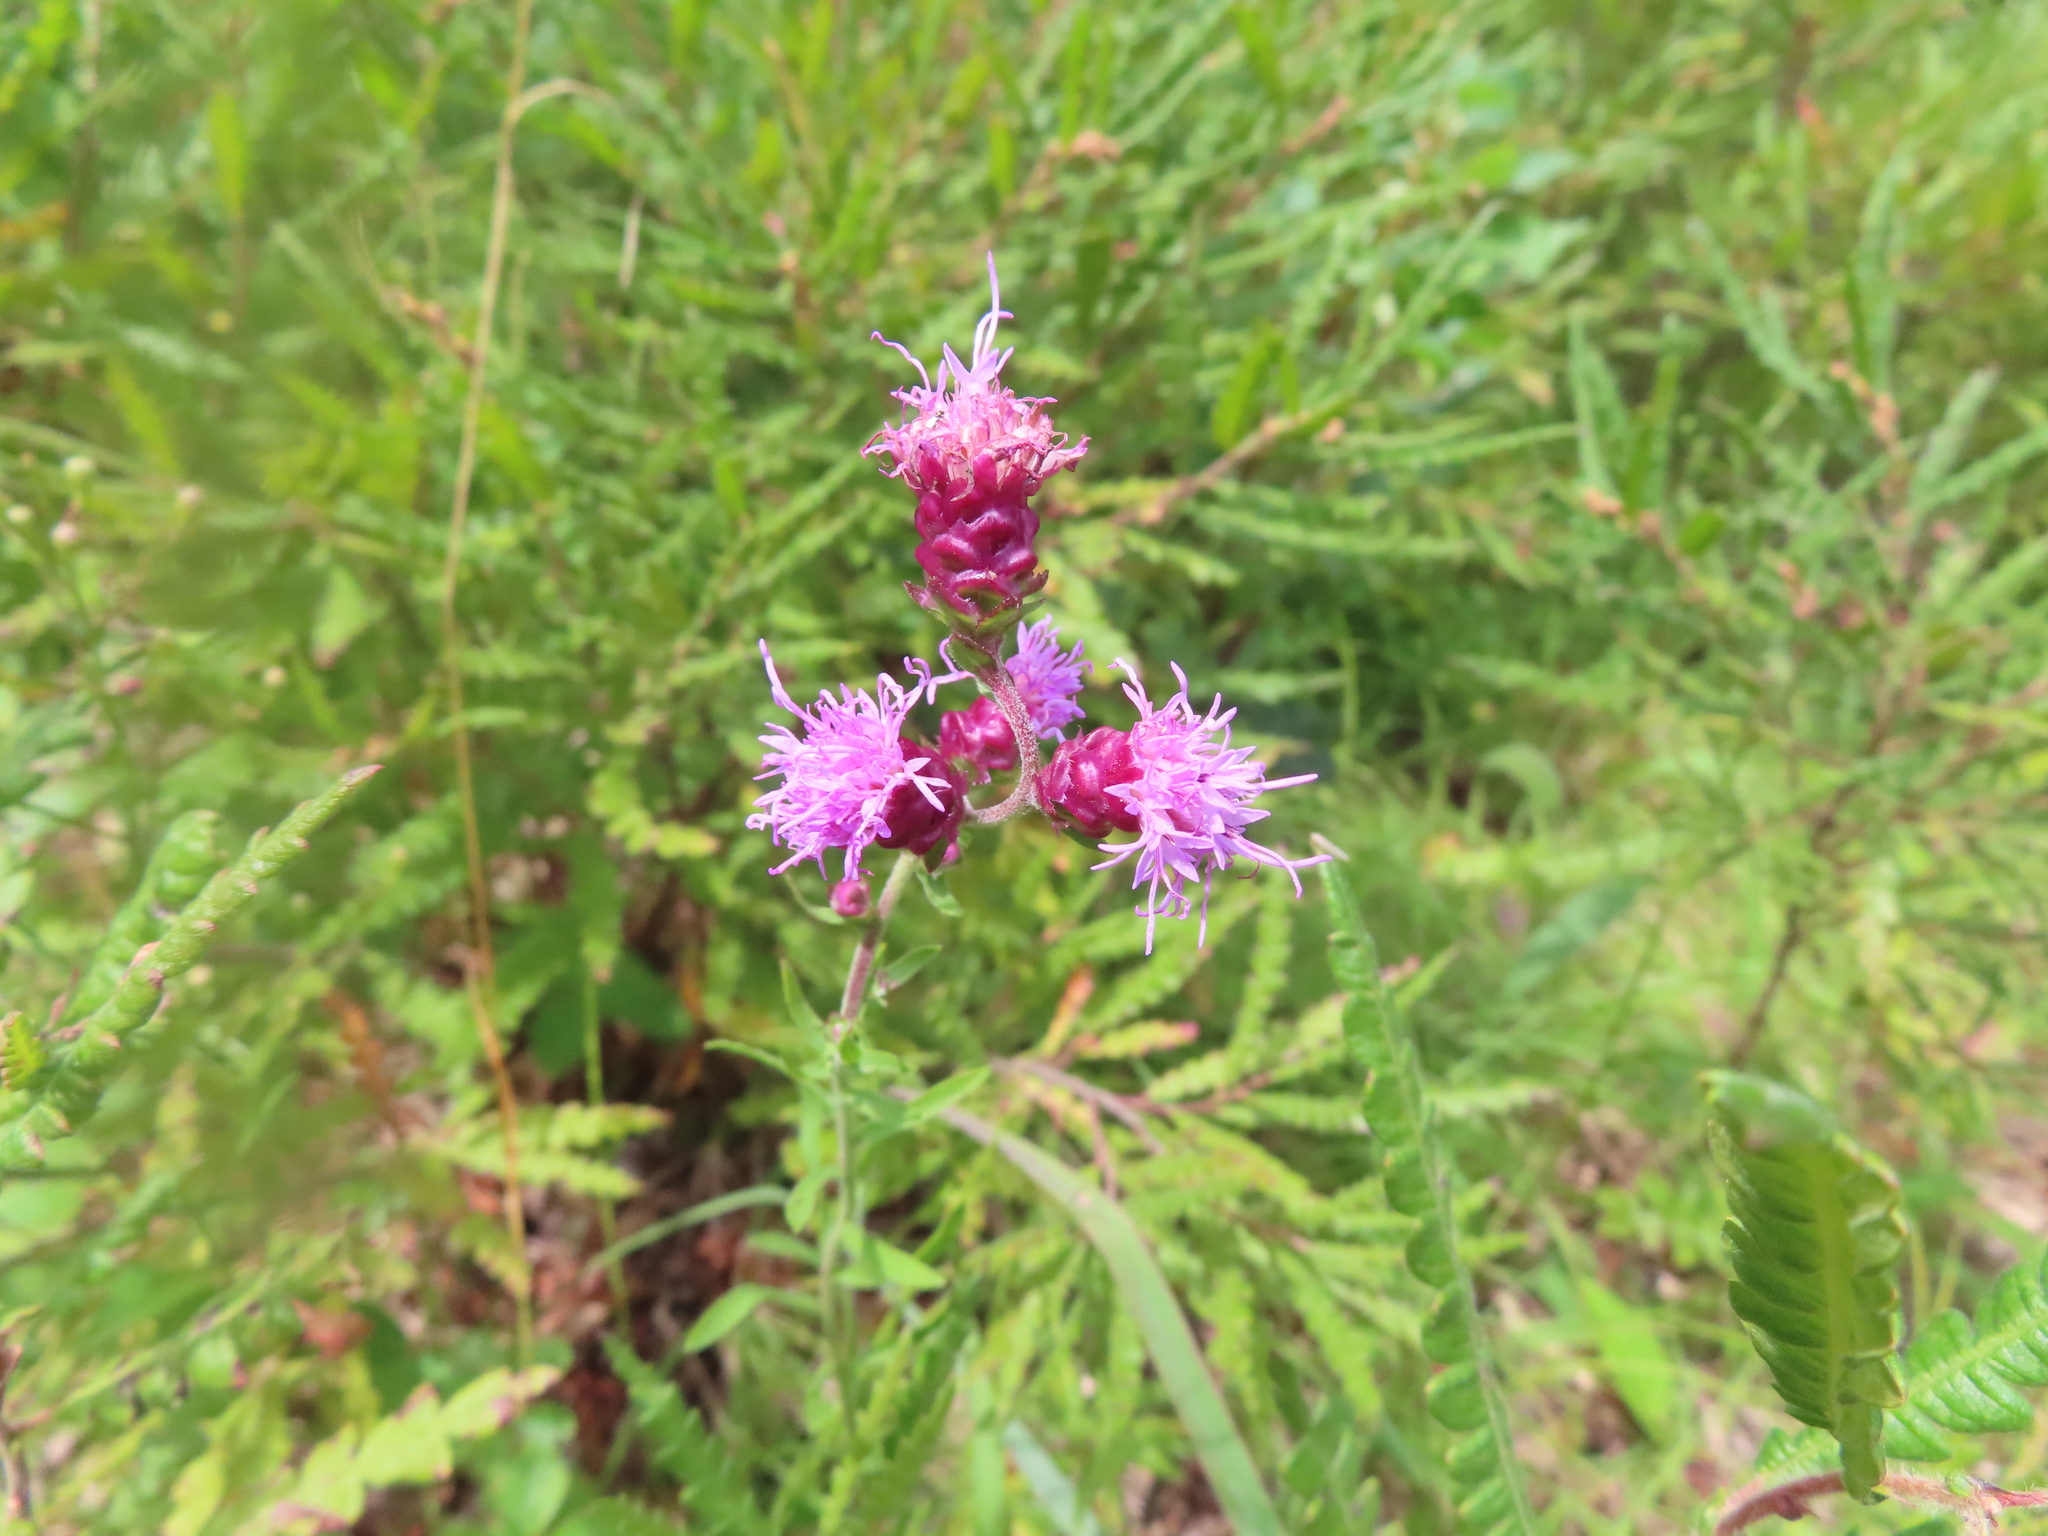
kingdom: Plantae
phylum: Tracheophyta
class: Magnoliopsida
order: Asterales
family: Asteraceae
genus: Liatris
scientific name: Liatris aspera
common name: Lacerate blazing-star
